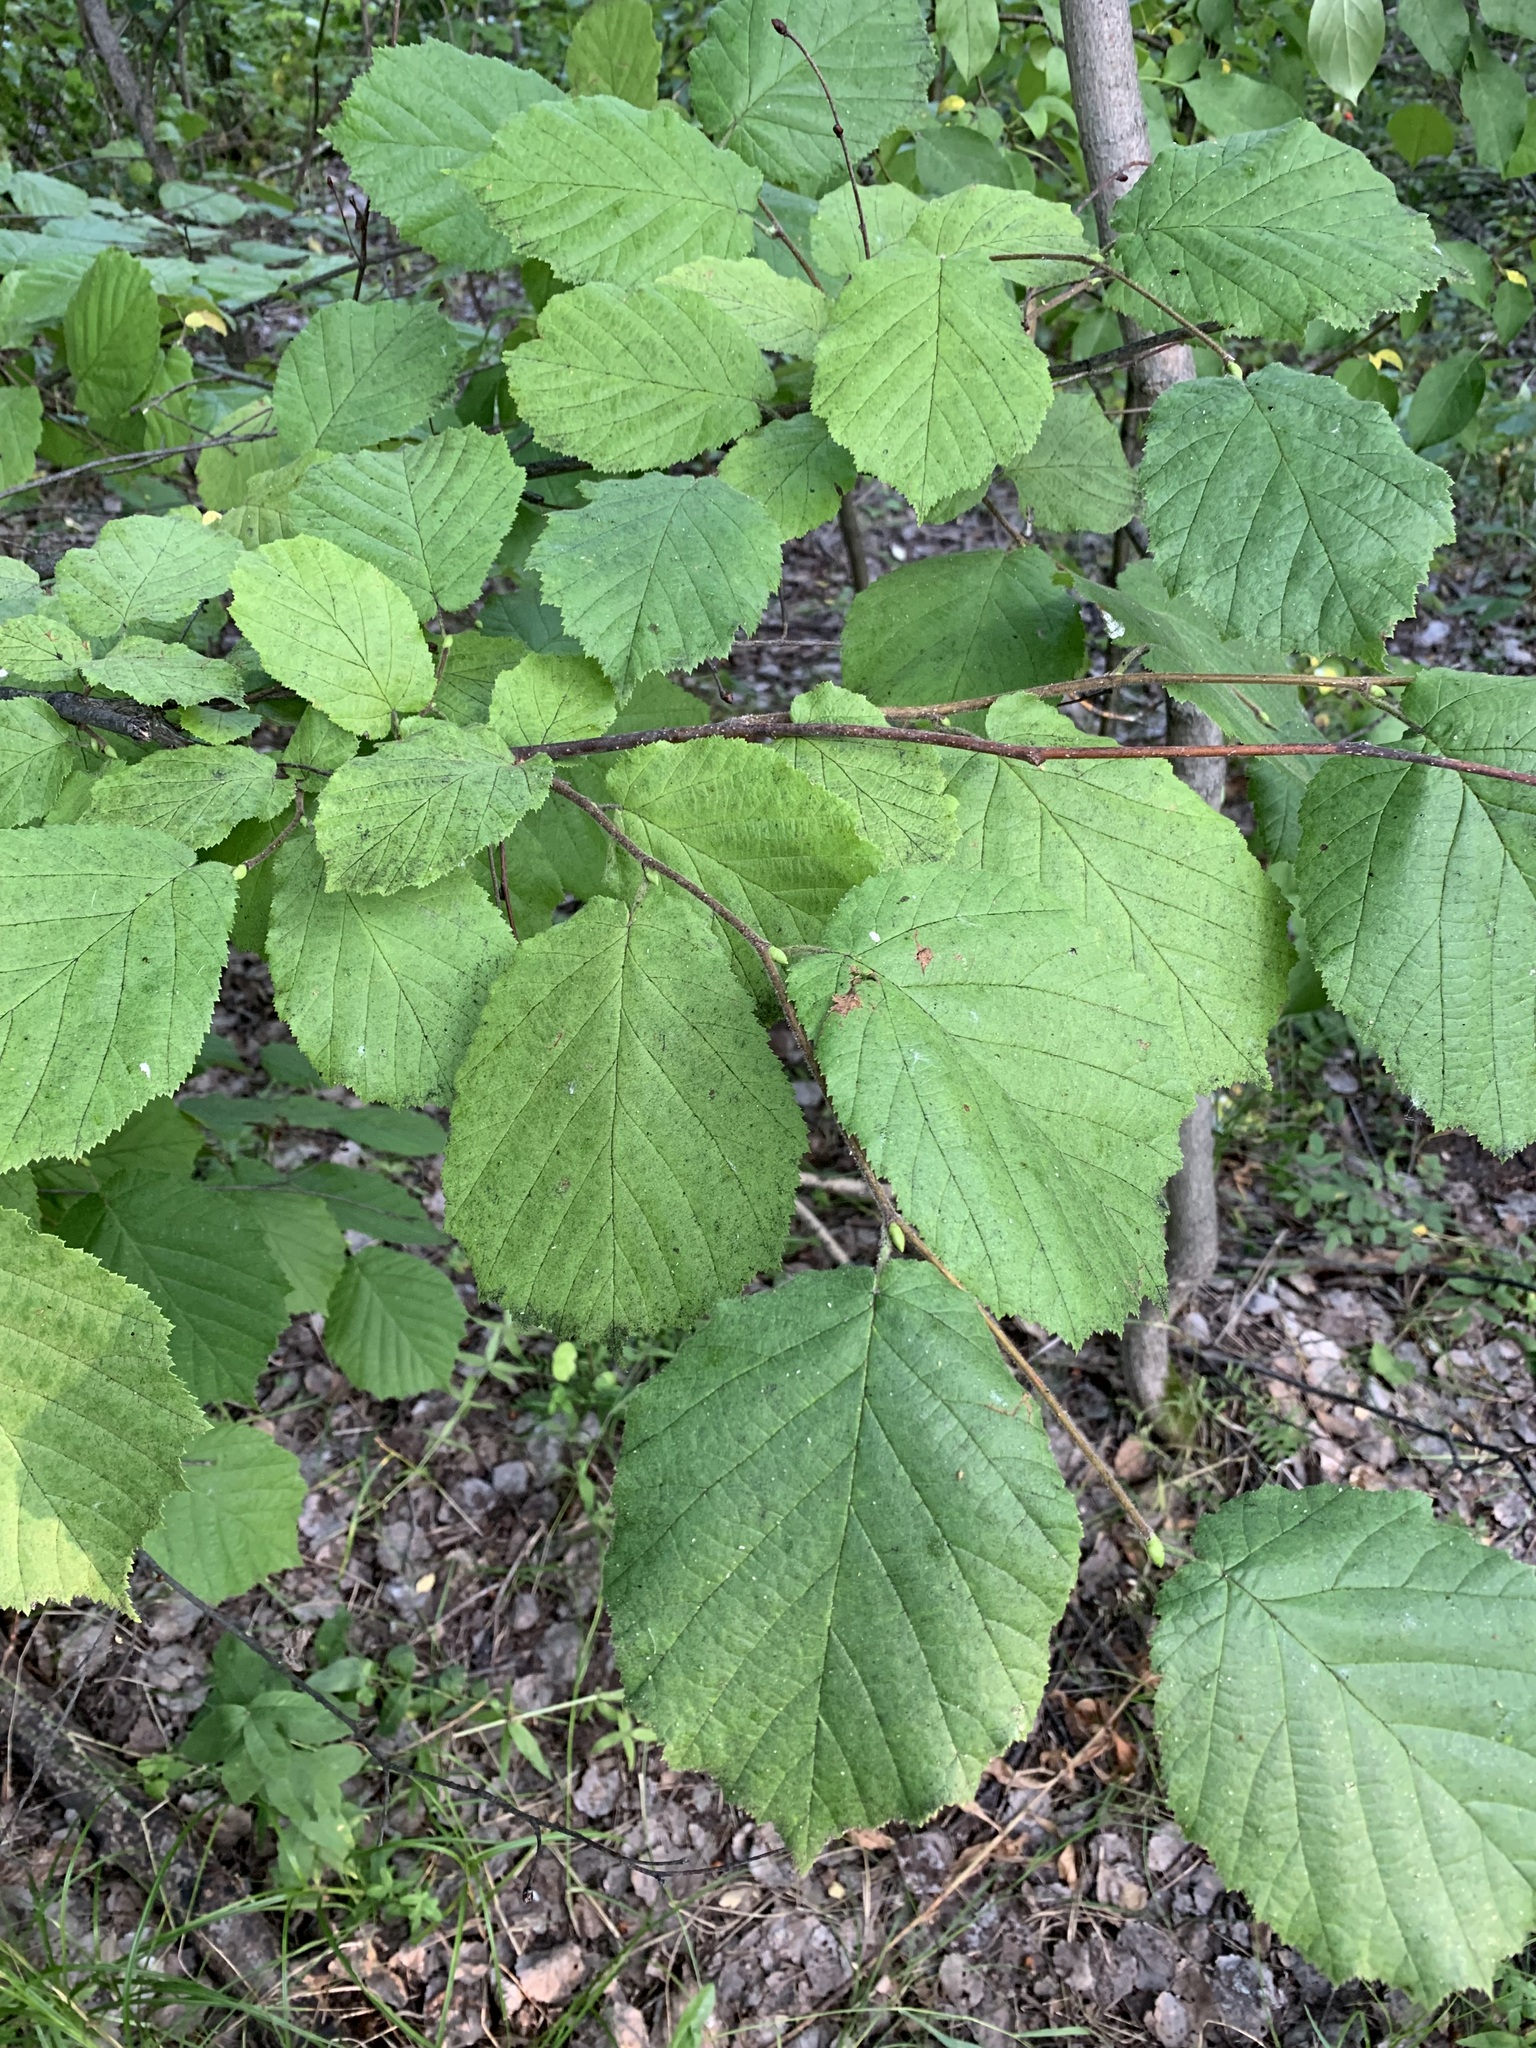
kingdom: Plantae
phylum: Tracheophyta
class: Magnoliopsida
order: Fagales
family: Betulaceae
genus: Corylus
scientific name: Corylus avellana
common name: European hazel
